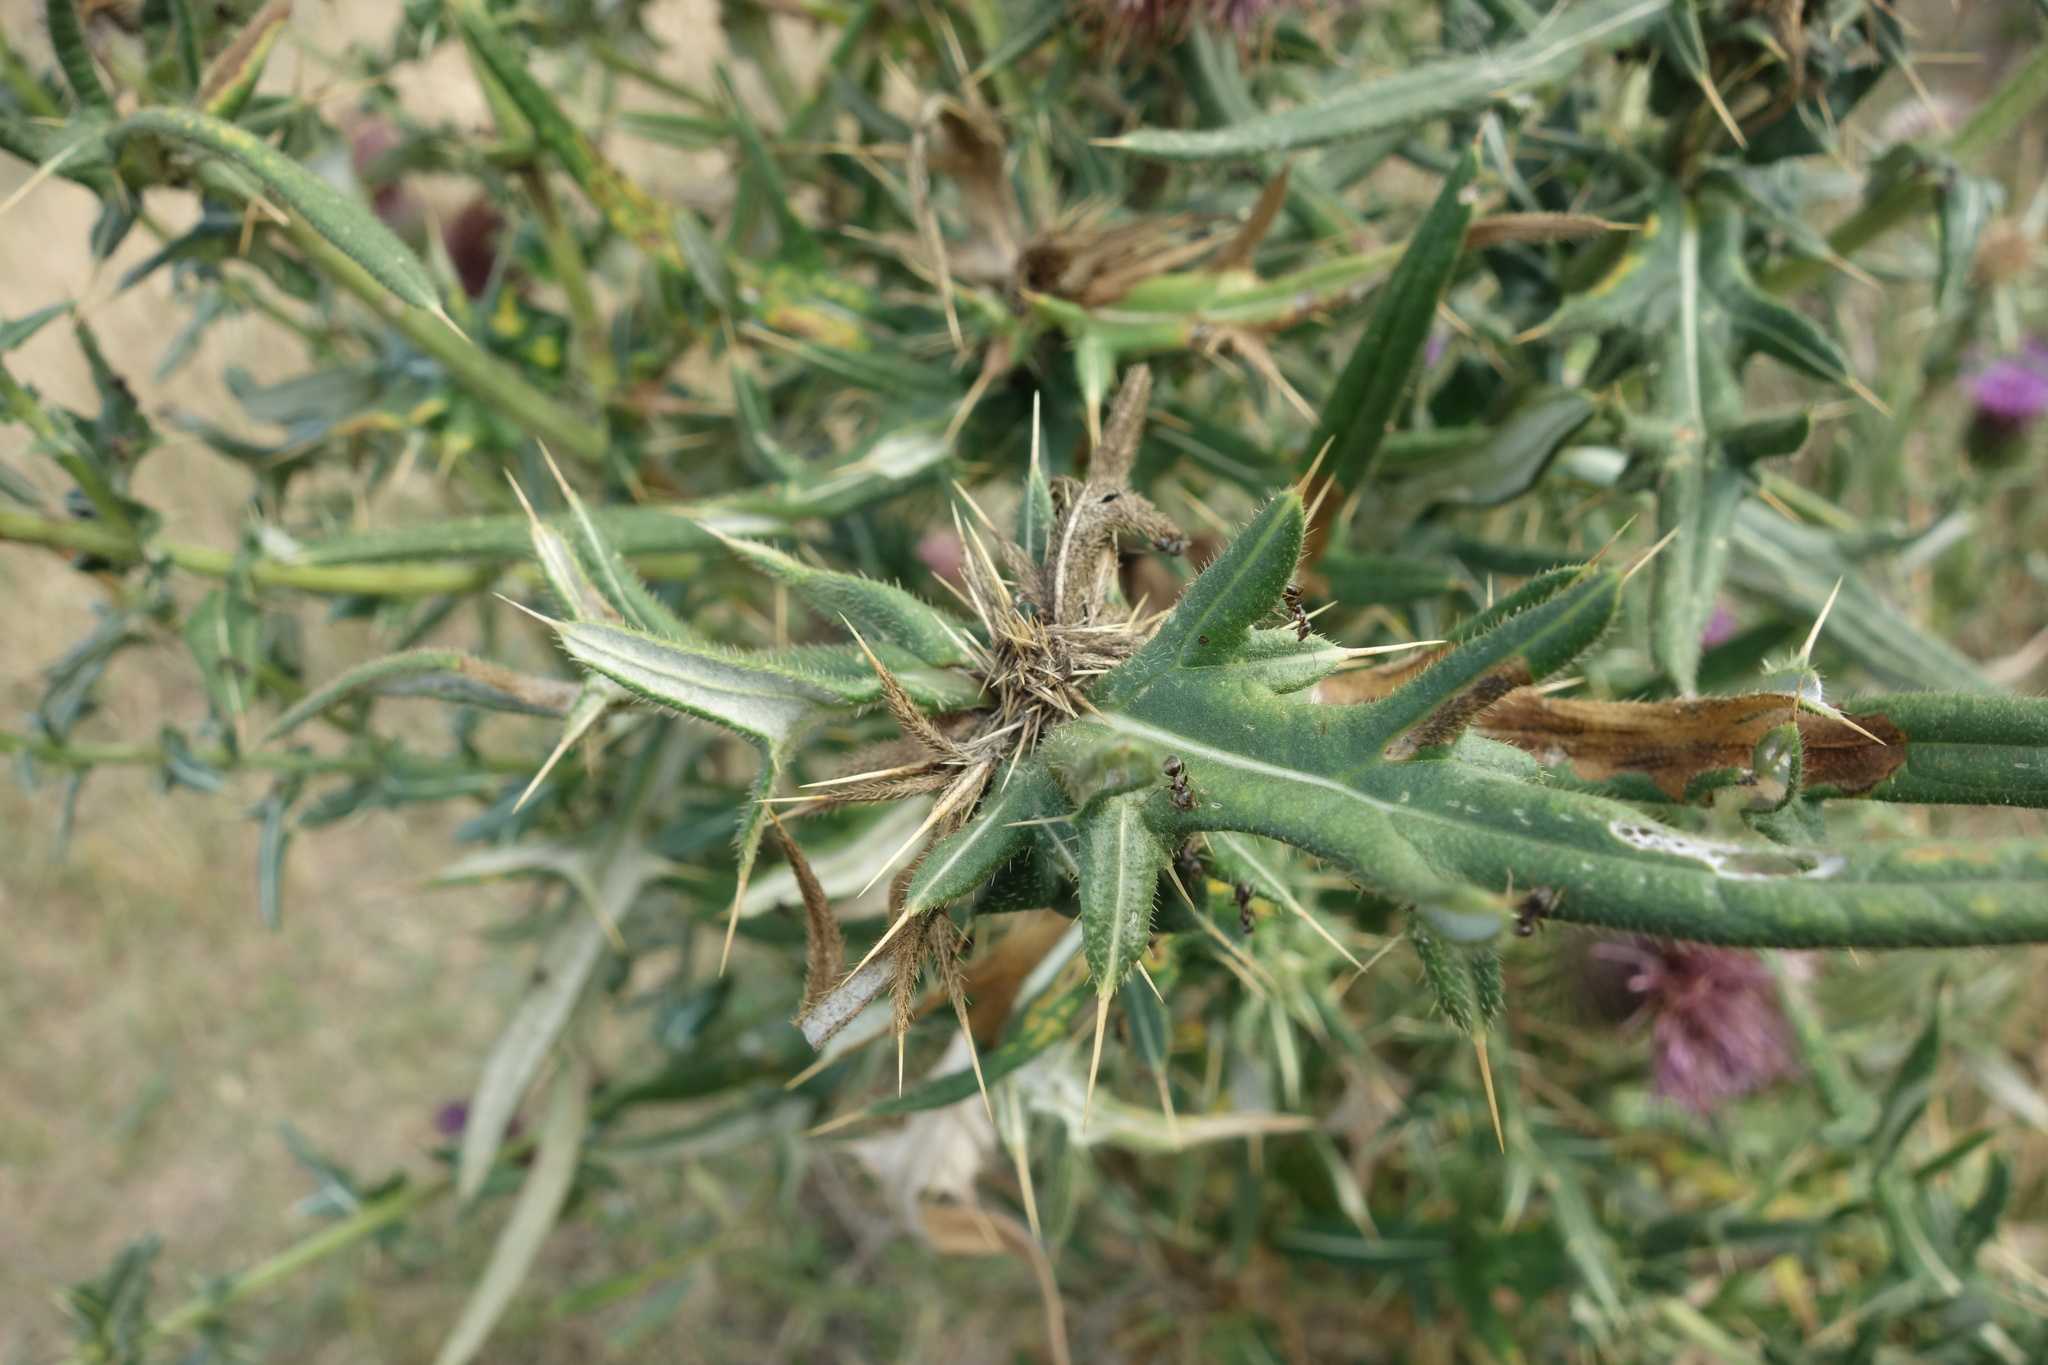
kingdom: Plantae
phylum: Tracheophyta
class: Magnoliopsida
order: Asterales
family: Asteraceae
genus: Cirsium
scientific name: Cirsium serrulatum
